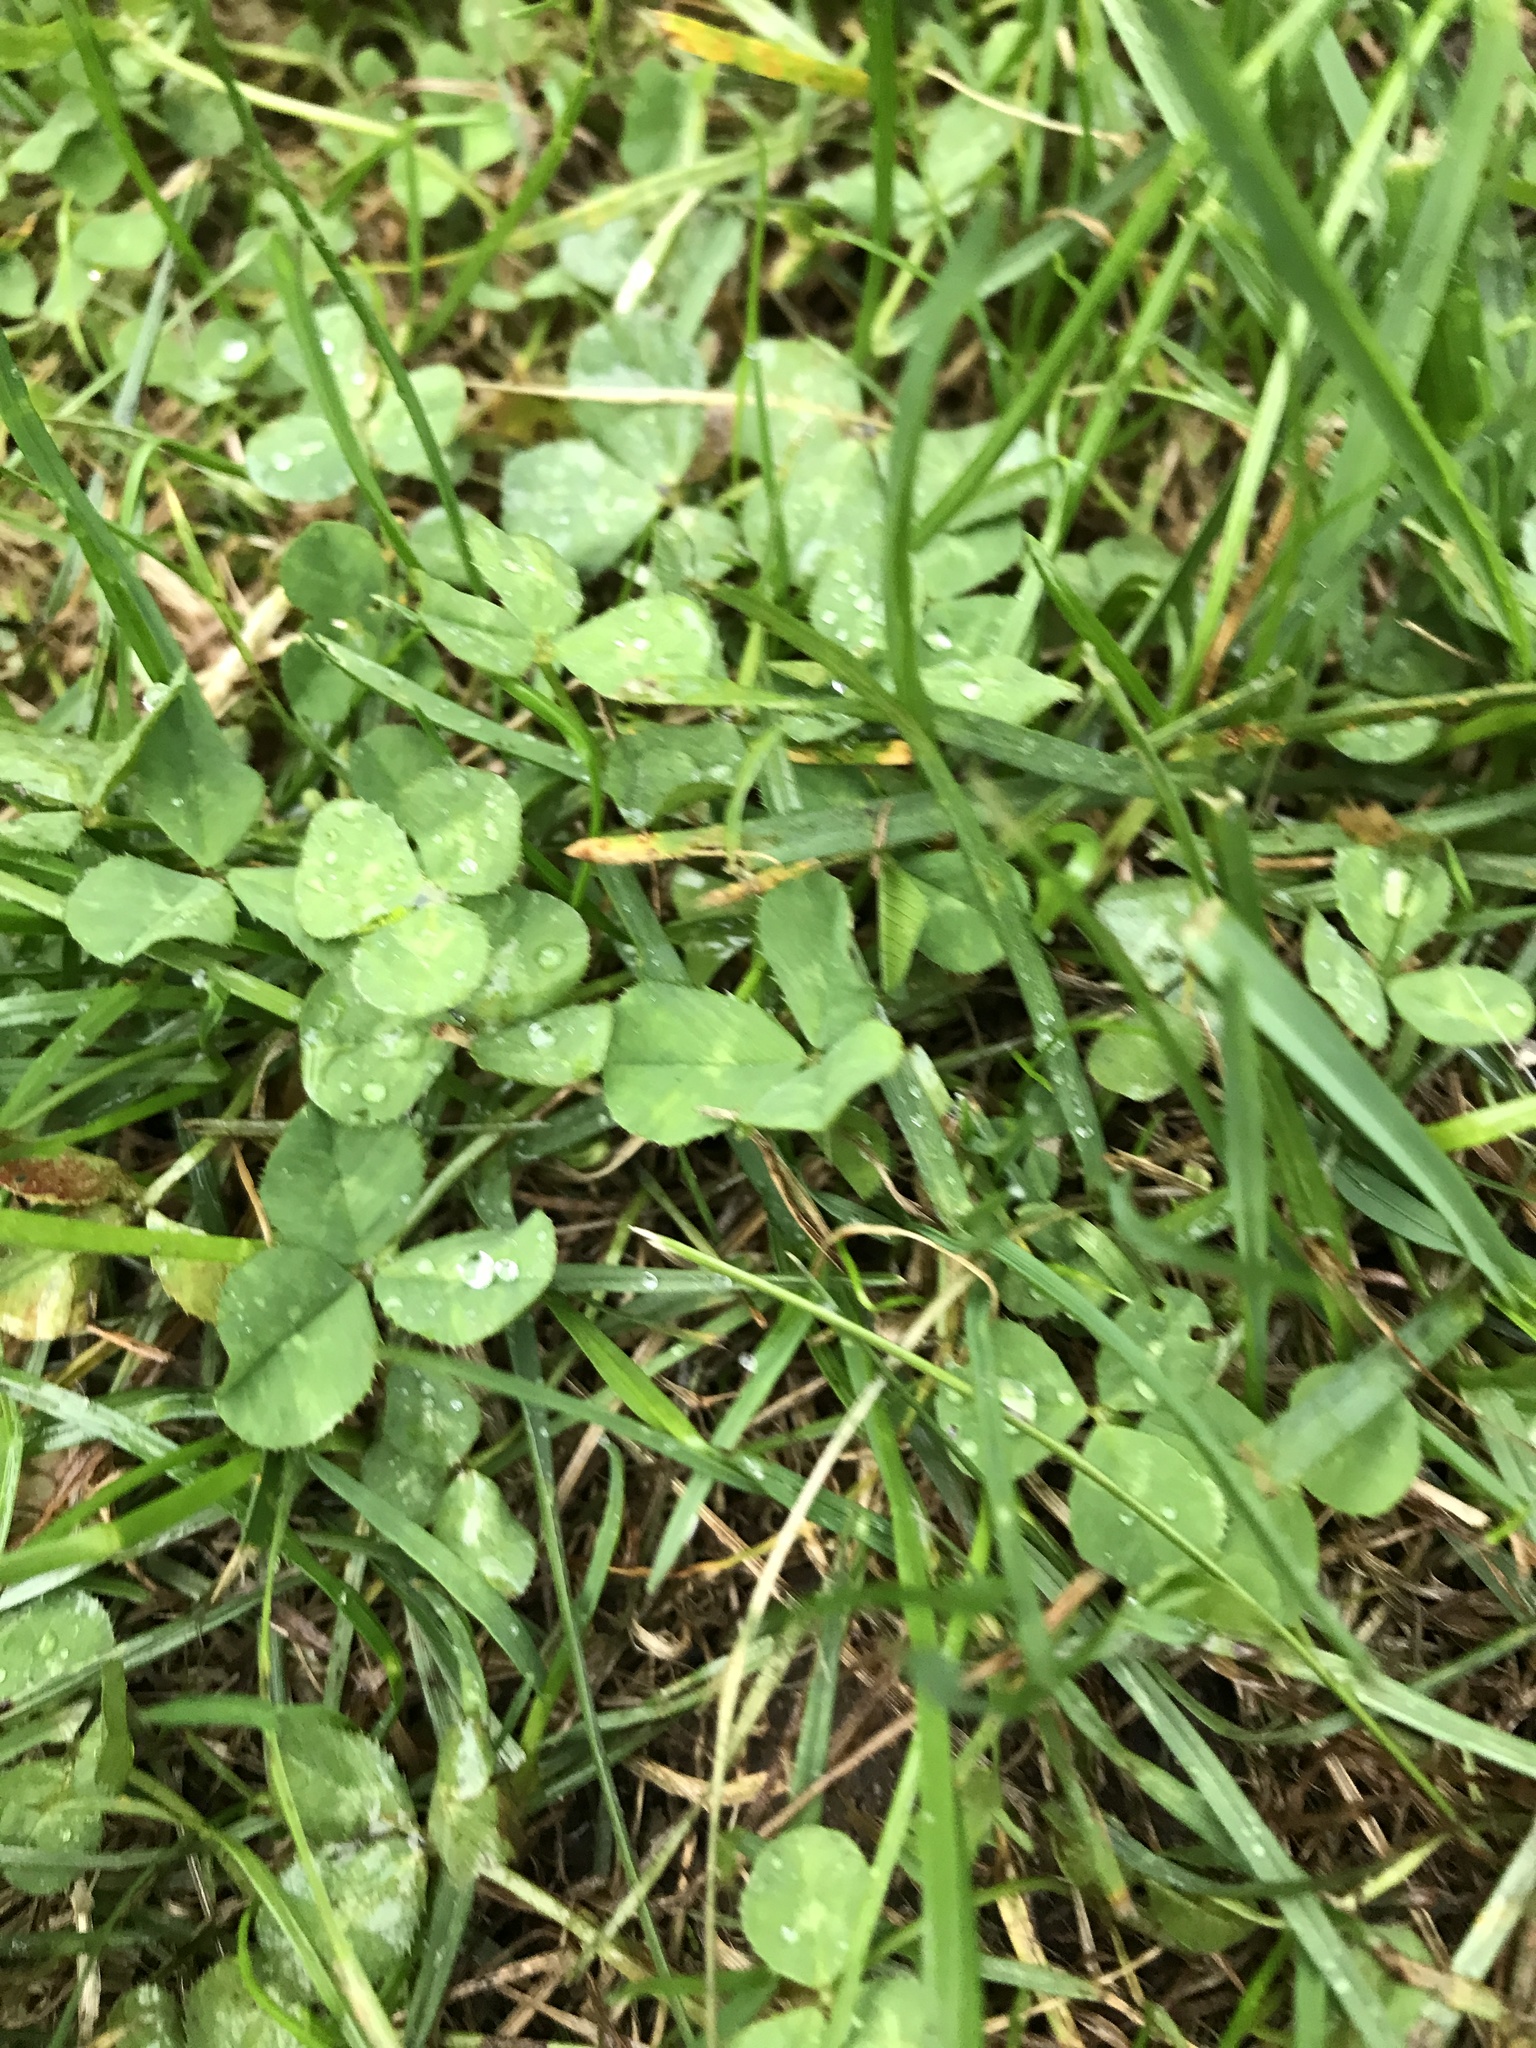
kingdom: Plantae
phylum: Tracheophyta
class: Magnoliopsida
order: Fabales
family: Fabaceae
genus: Trifolium
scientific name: Trifolium repens
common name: White clover
